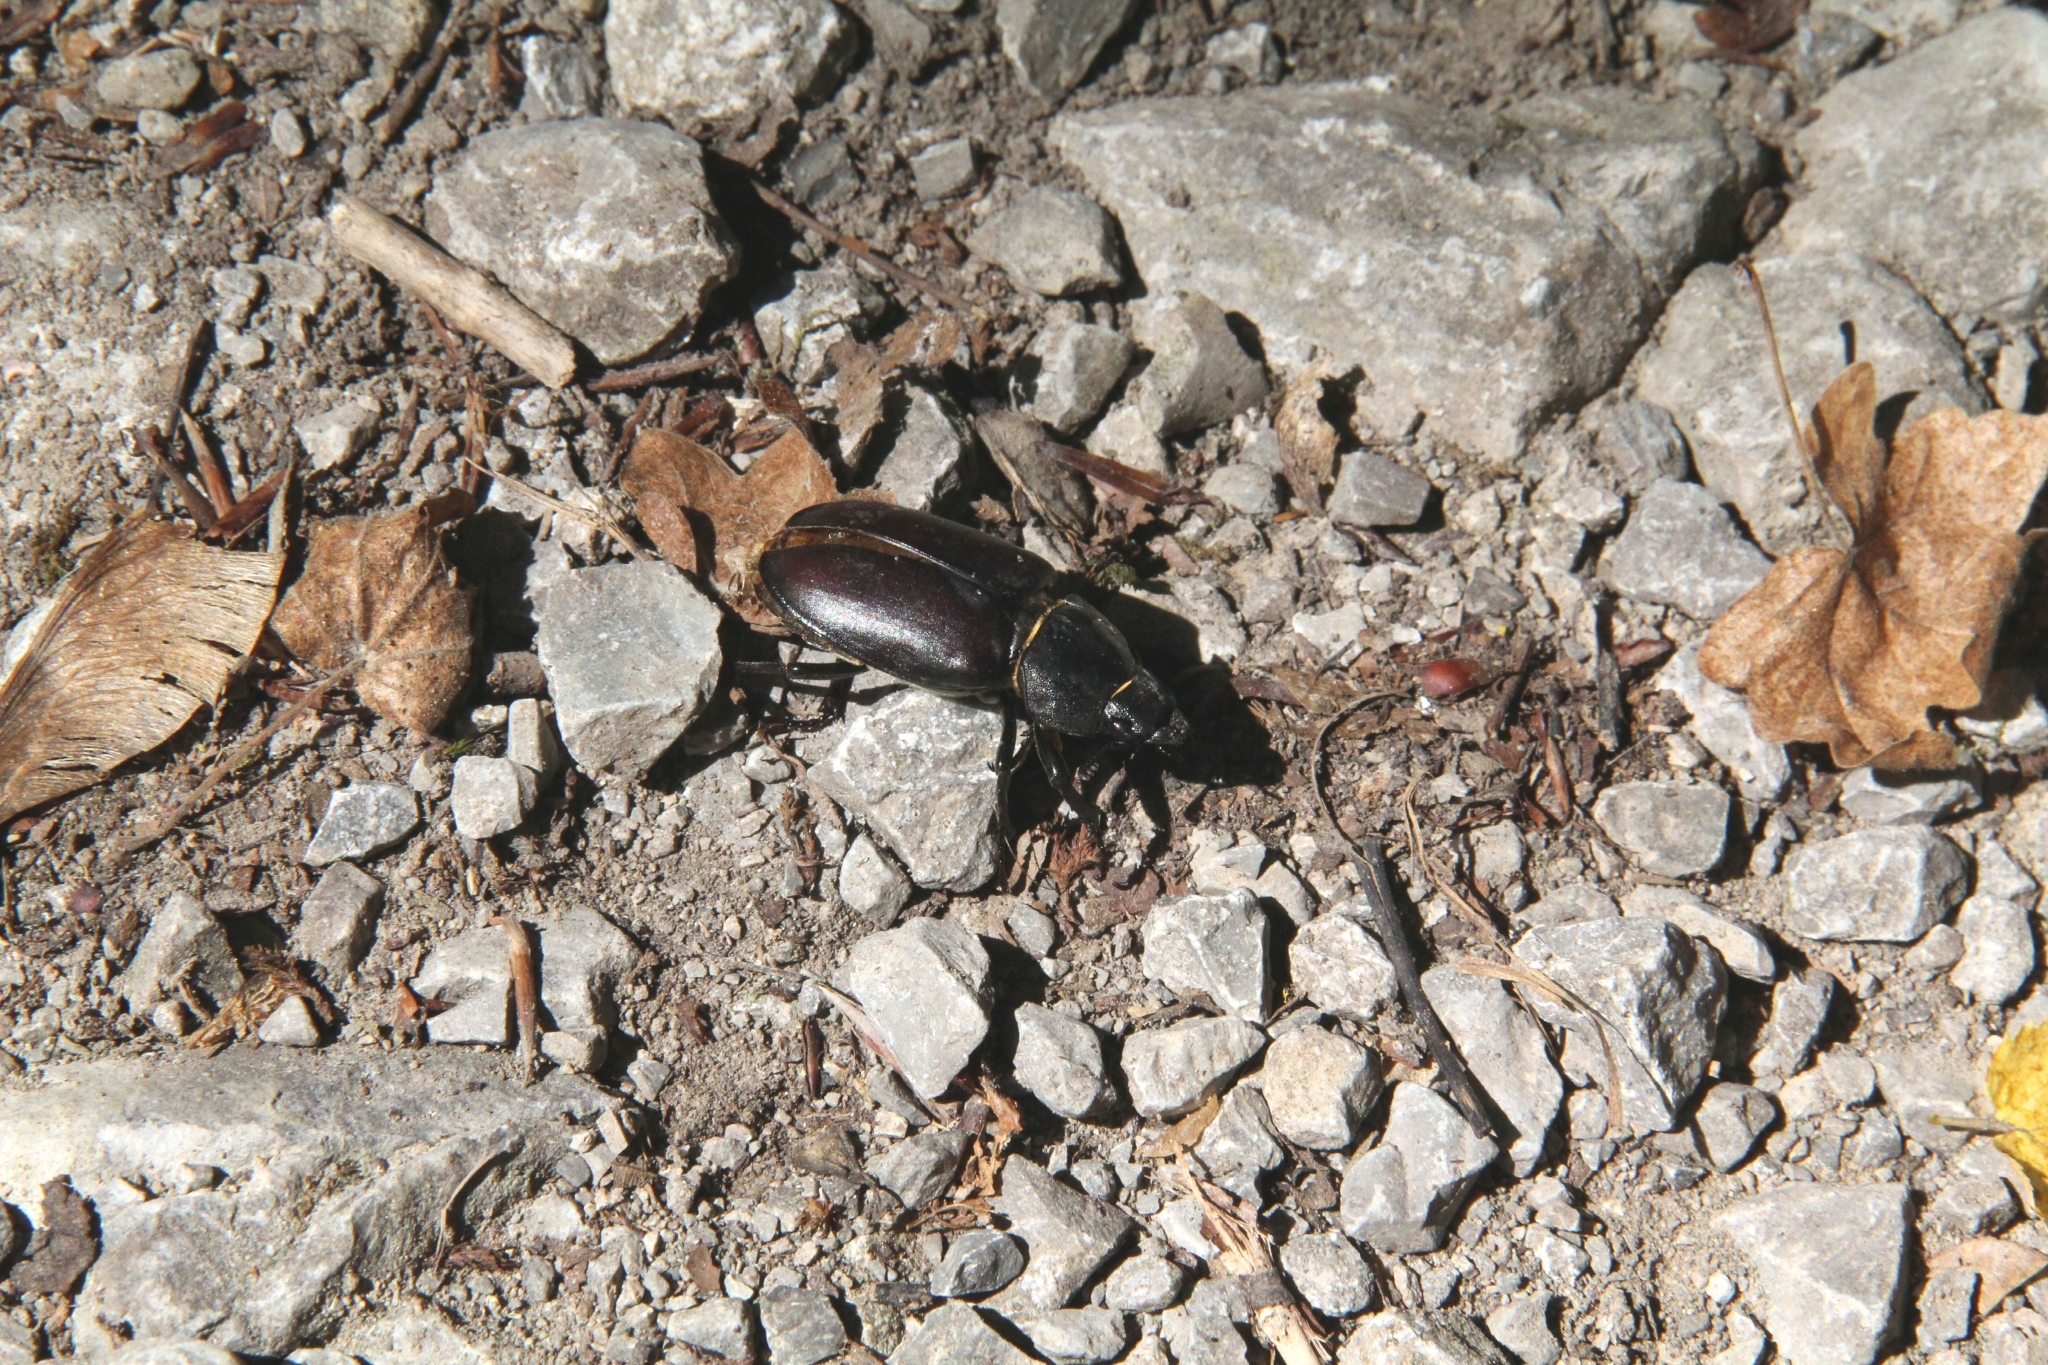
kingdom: Animalia
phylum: Arthropoda
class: Insecta
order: Coleoptera
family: Lucanidae
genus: Lucanus
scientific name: Lucanus cervus
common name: Stag beetle
